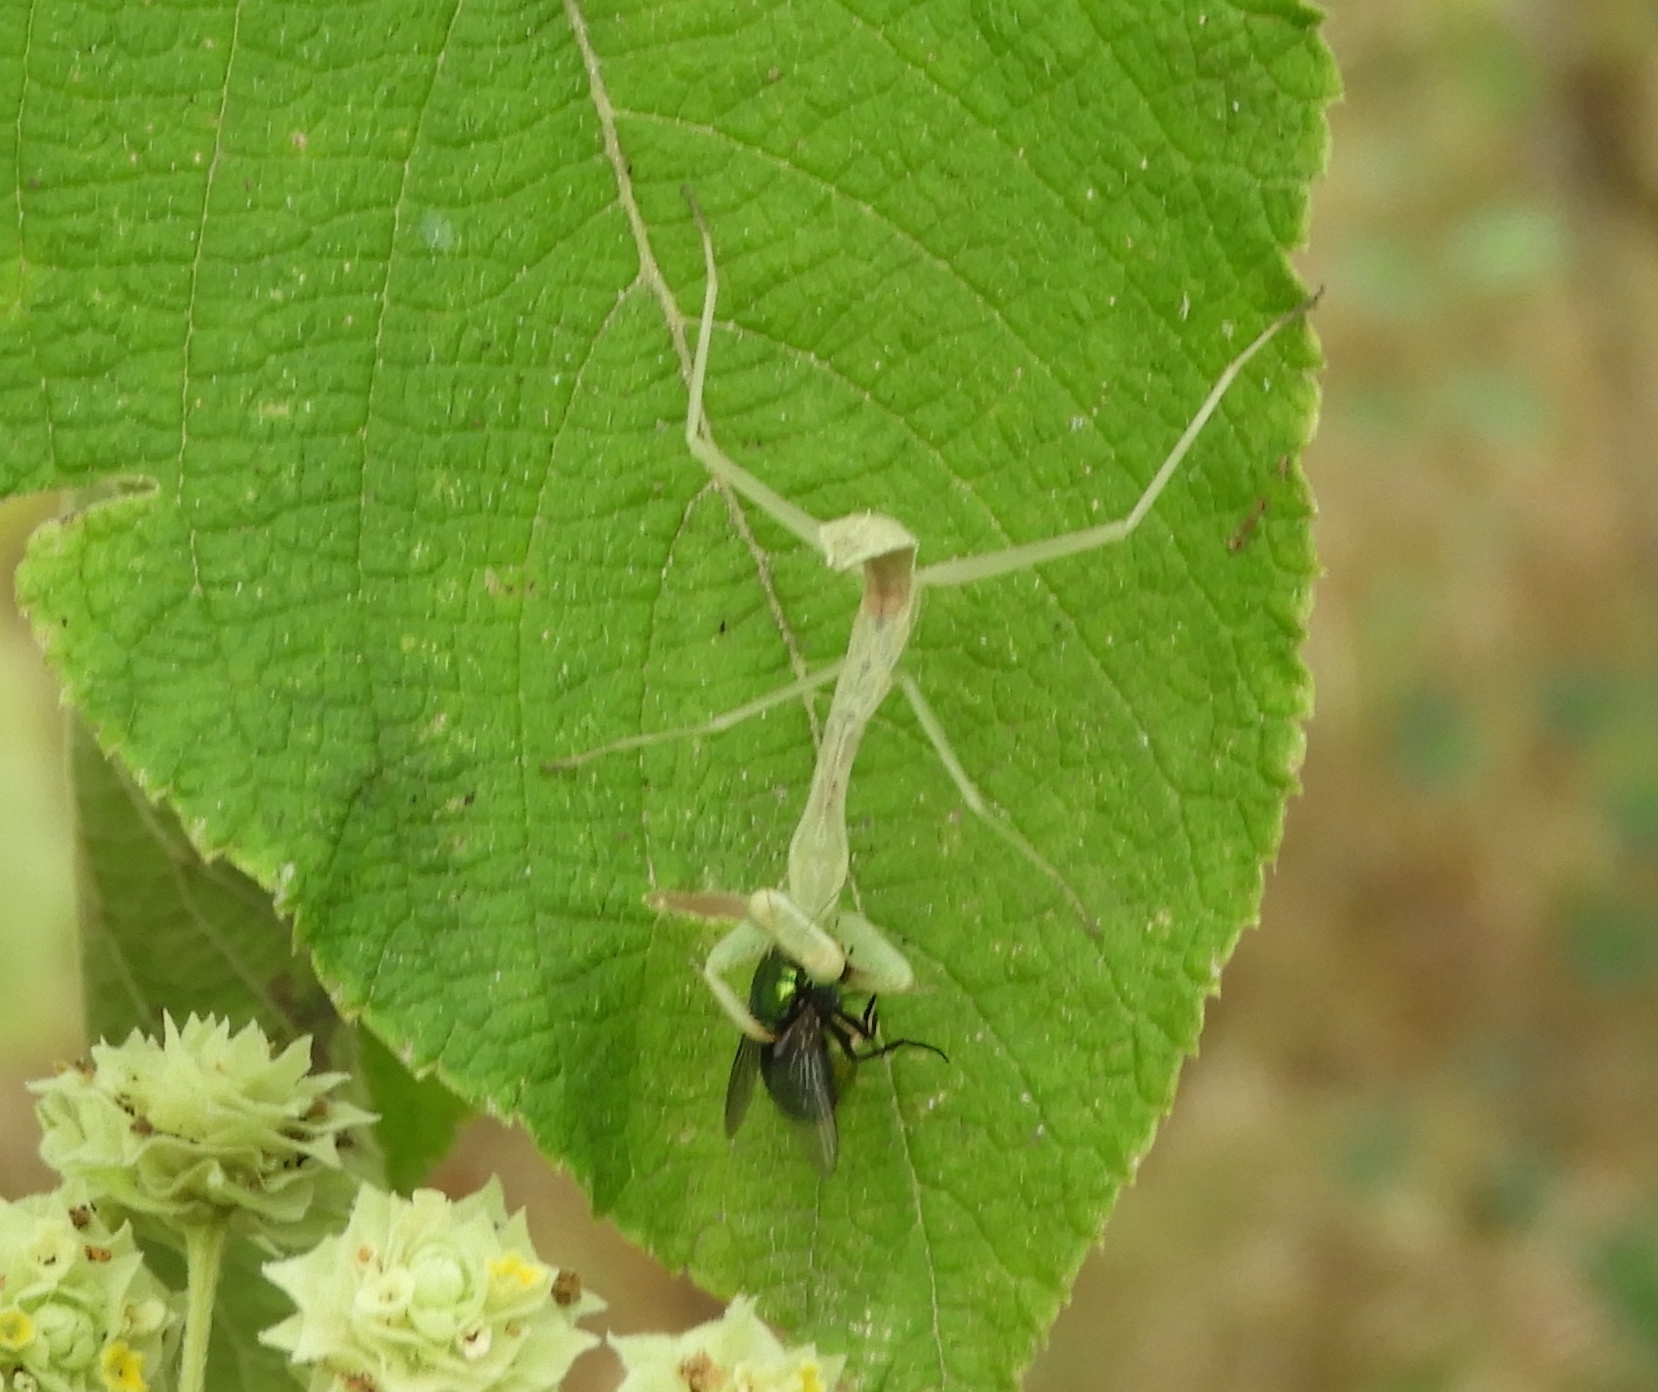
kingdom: Animalia
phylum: Arthropoda
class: Insecta
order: Mantodea
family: Mantidae
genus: Stagmomantis
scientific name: Stagmomantis
